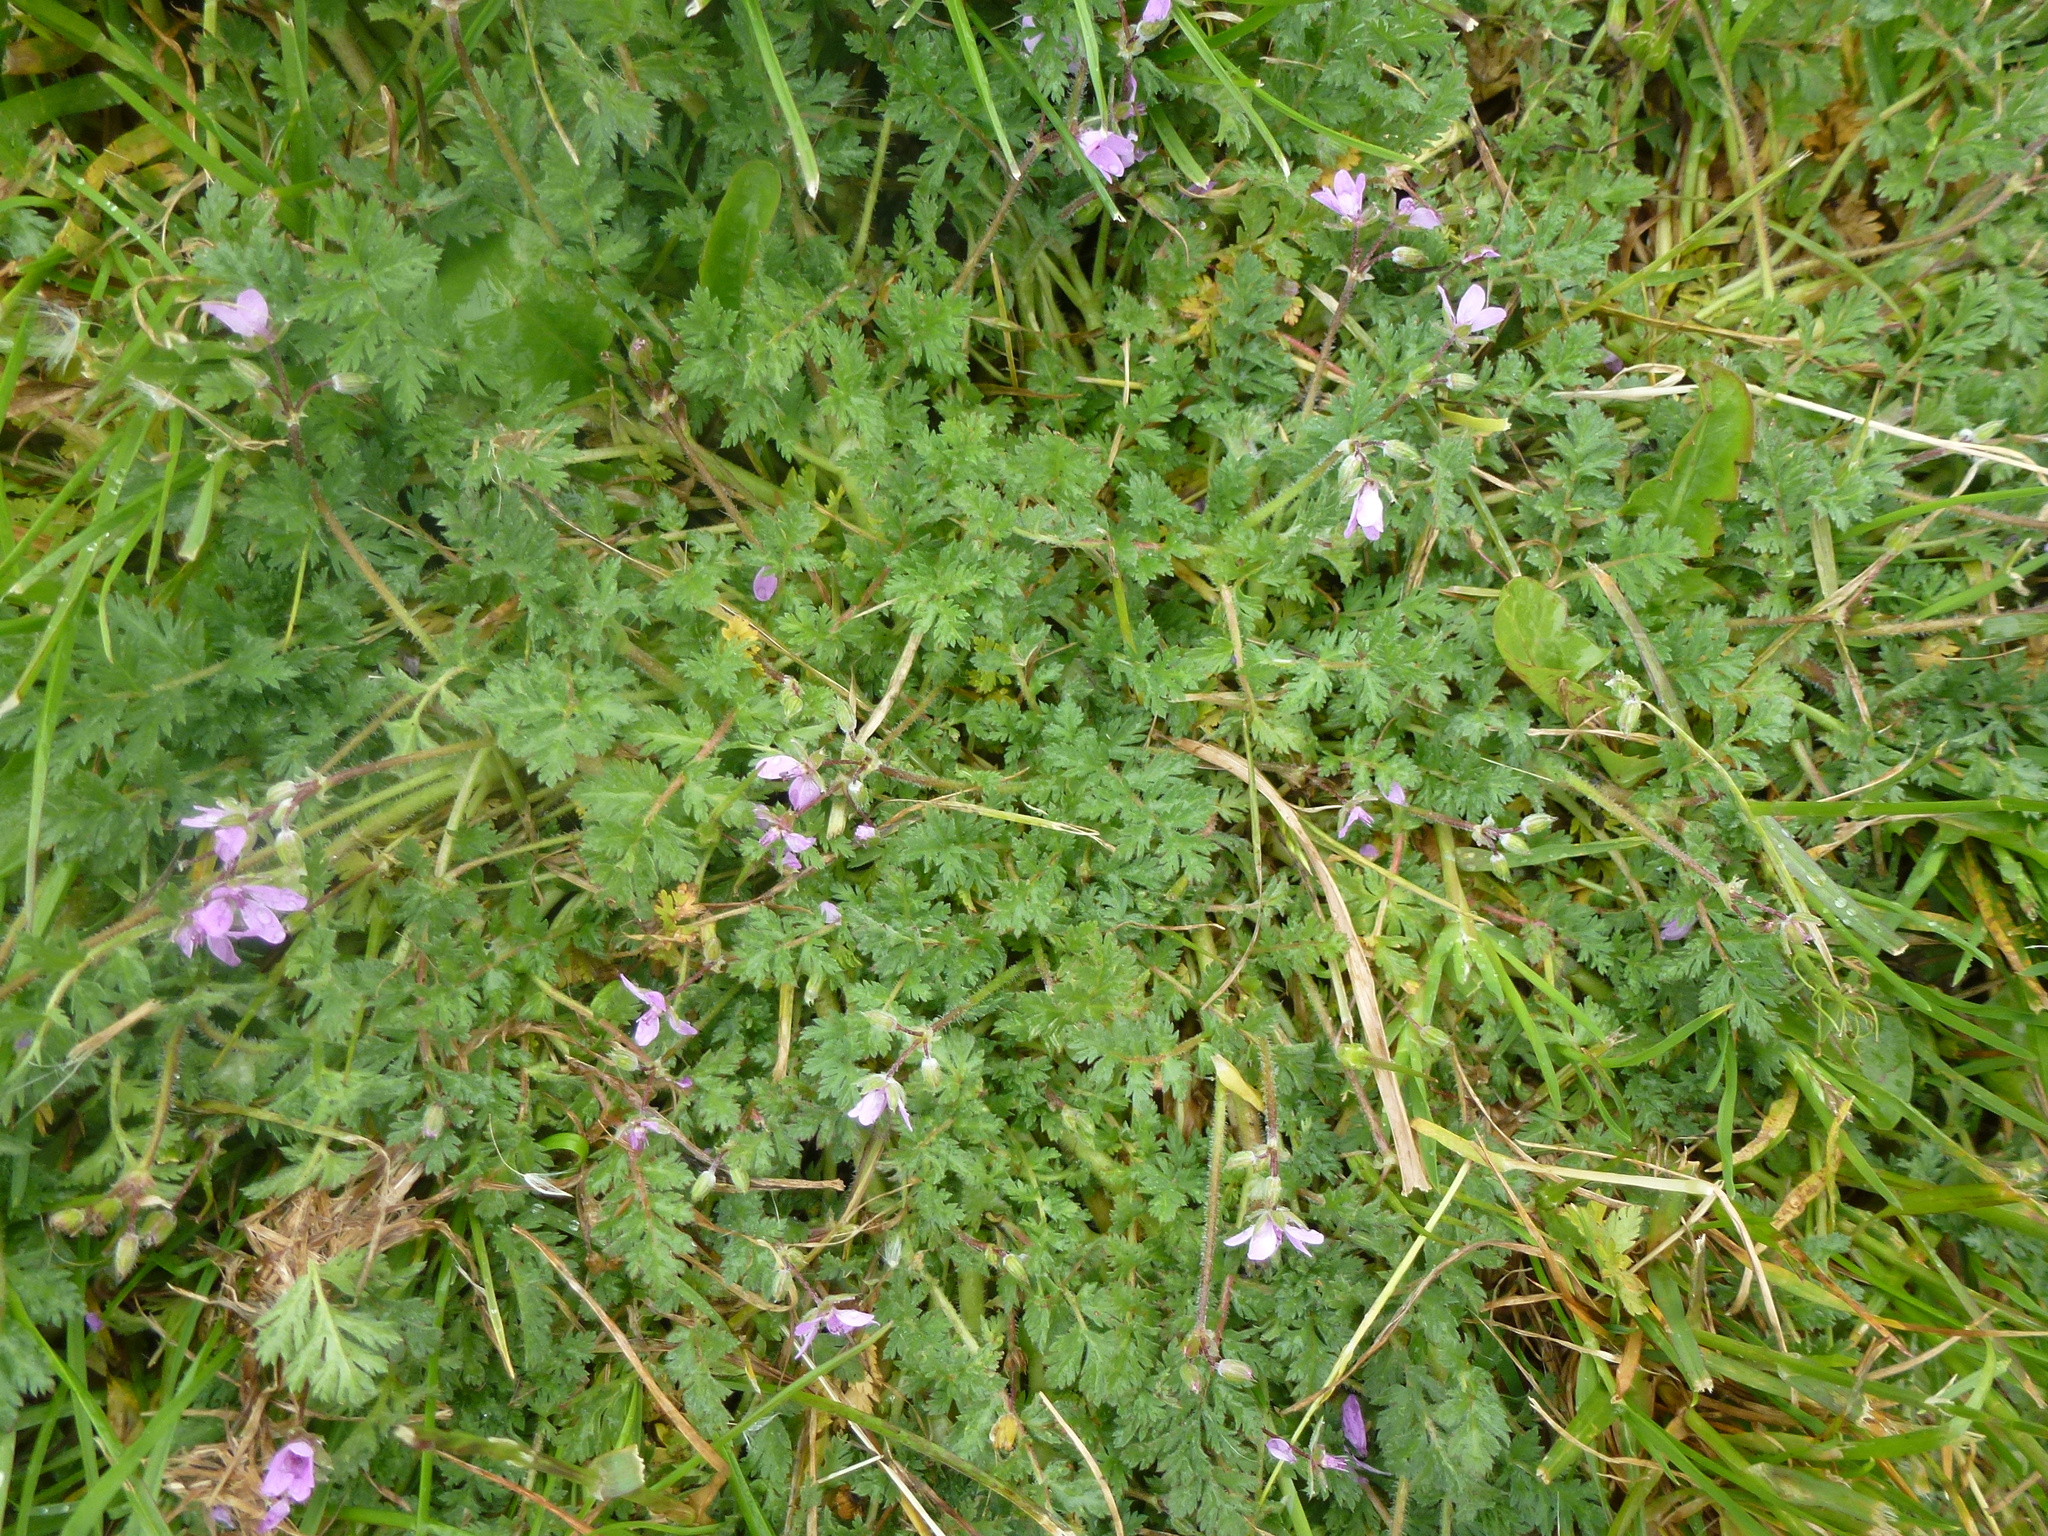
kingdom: Plantae
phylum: Tracheophyta
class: Magnoliopsida
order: Geraniales
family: Geraniaceae
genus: Erodium
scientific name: Erodium cicutarium
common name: Common stork's-bill
